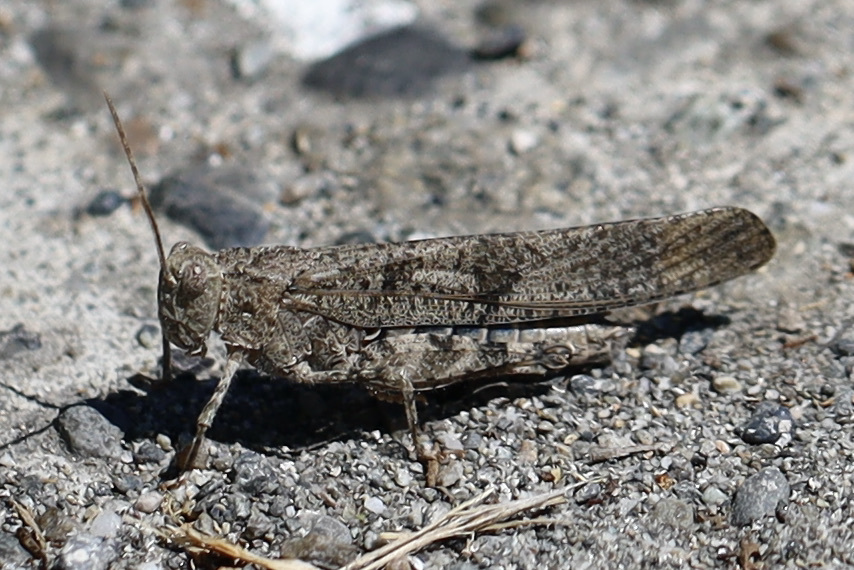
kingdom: Animalia
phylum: Arthropoda
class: Insecta
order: Orthoptera
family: Acrididae
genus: Dissosteira
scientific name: Dissosteira carolina
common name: Carolina grasshopper
